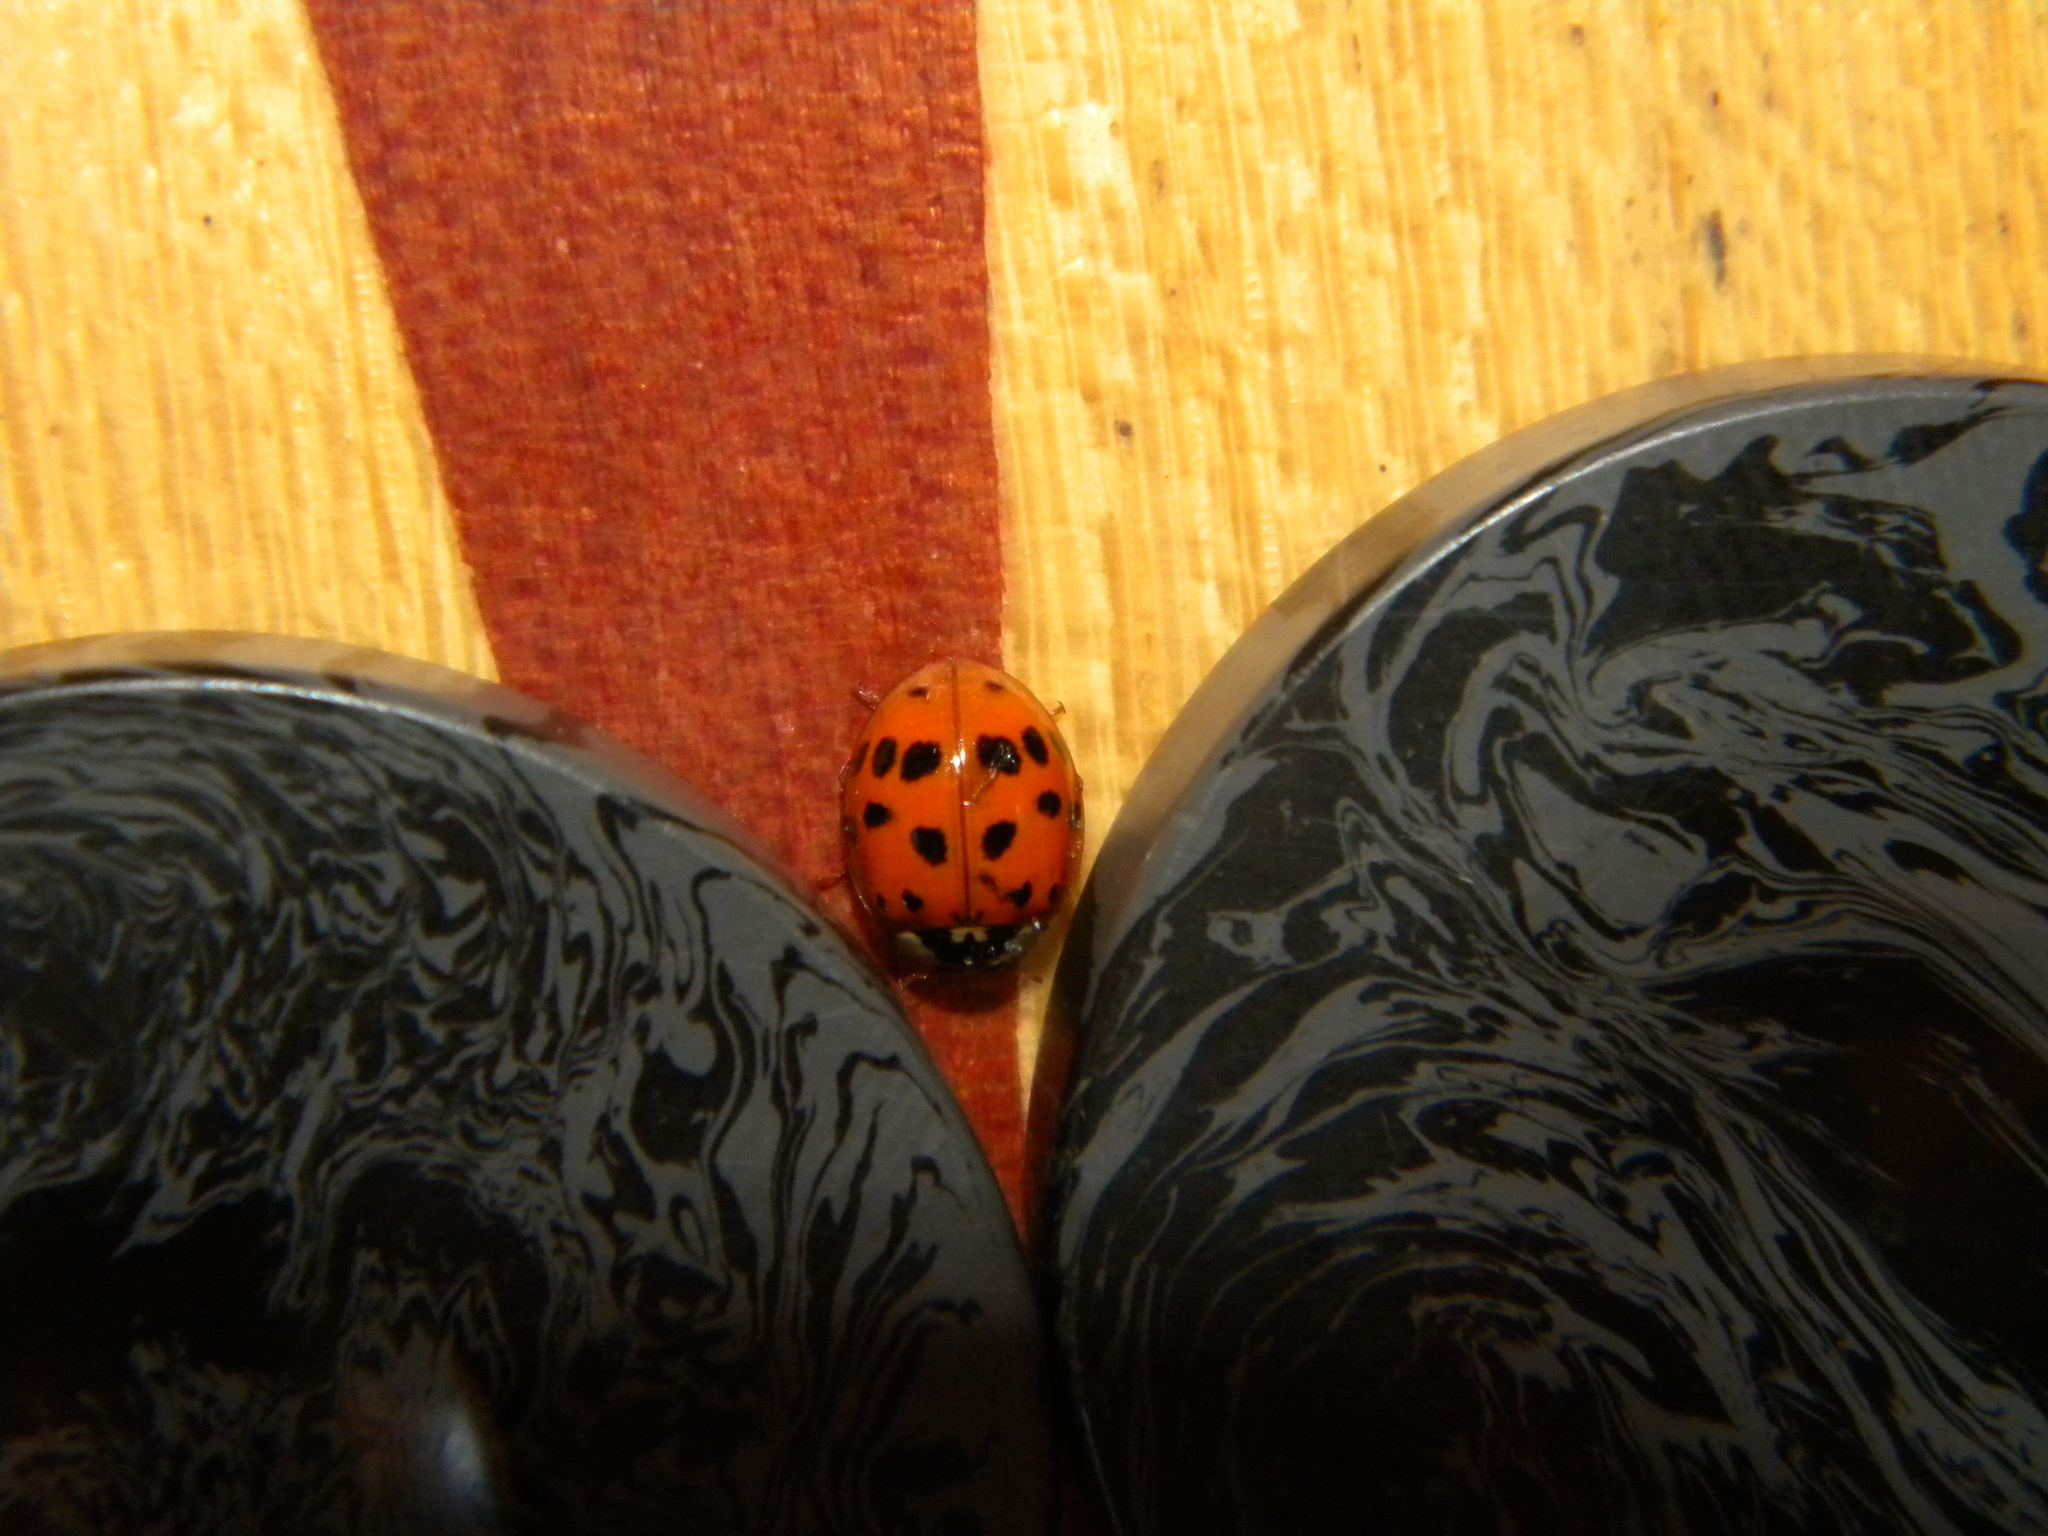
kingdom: Animalia
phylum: Arthropoda
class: Insecta
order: Coleoptera
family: Coccinellidae
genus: Harmonia
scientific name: Harmonia axyridis
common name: Harlequin ladybird
